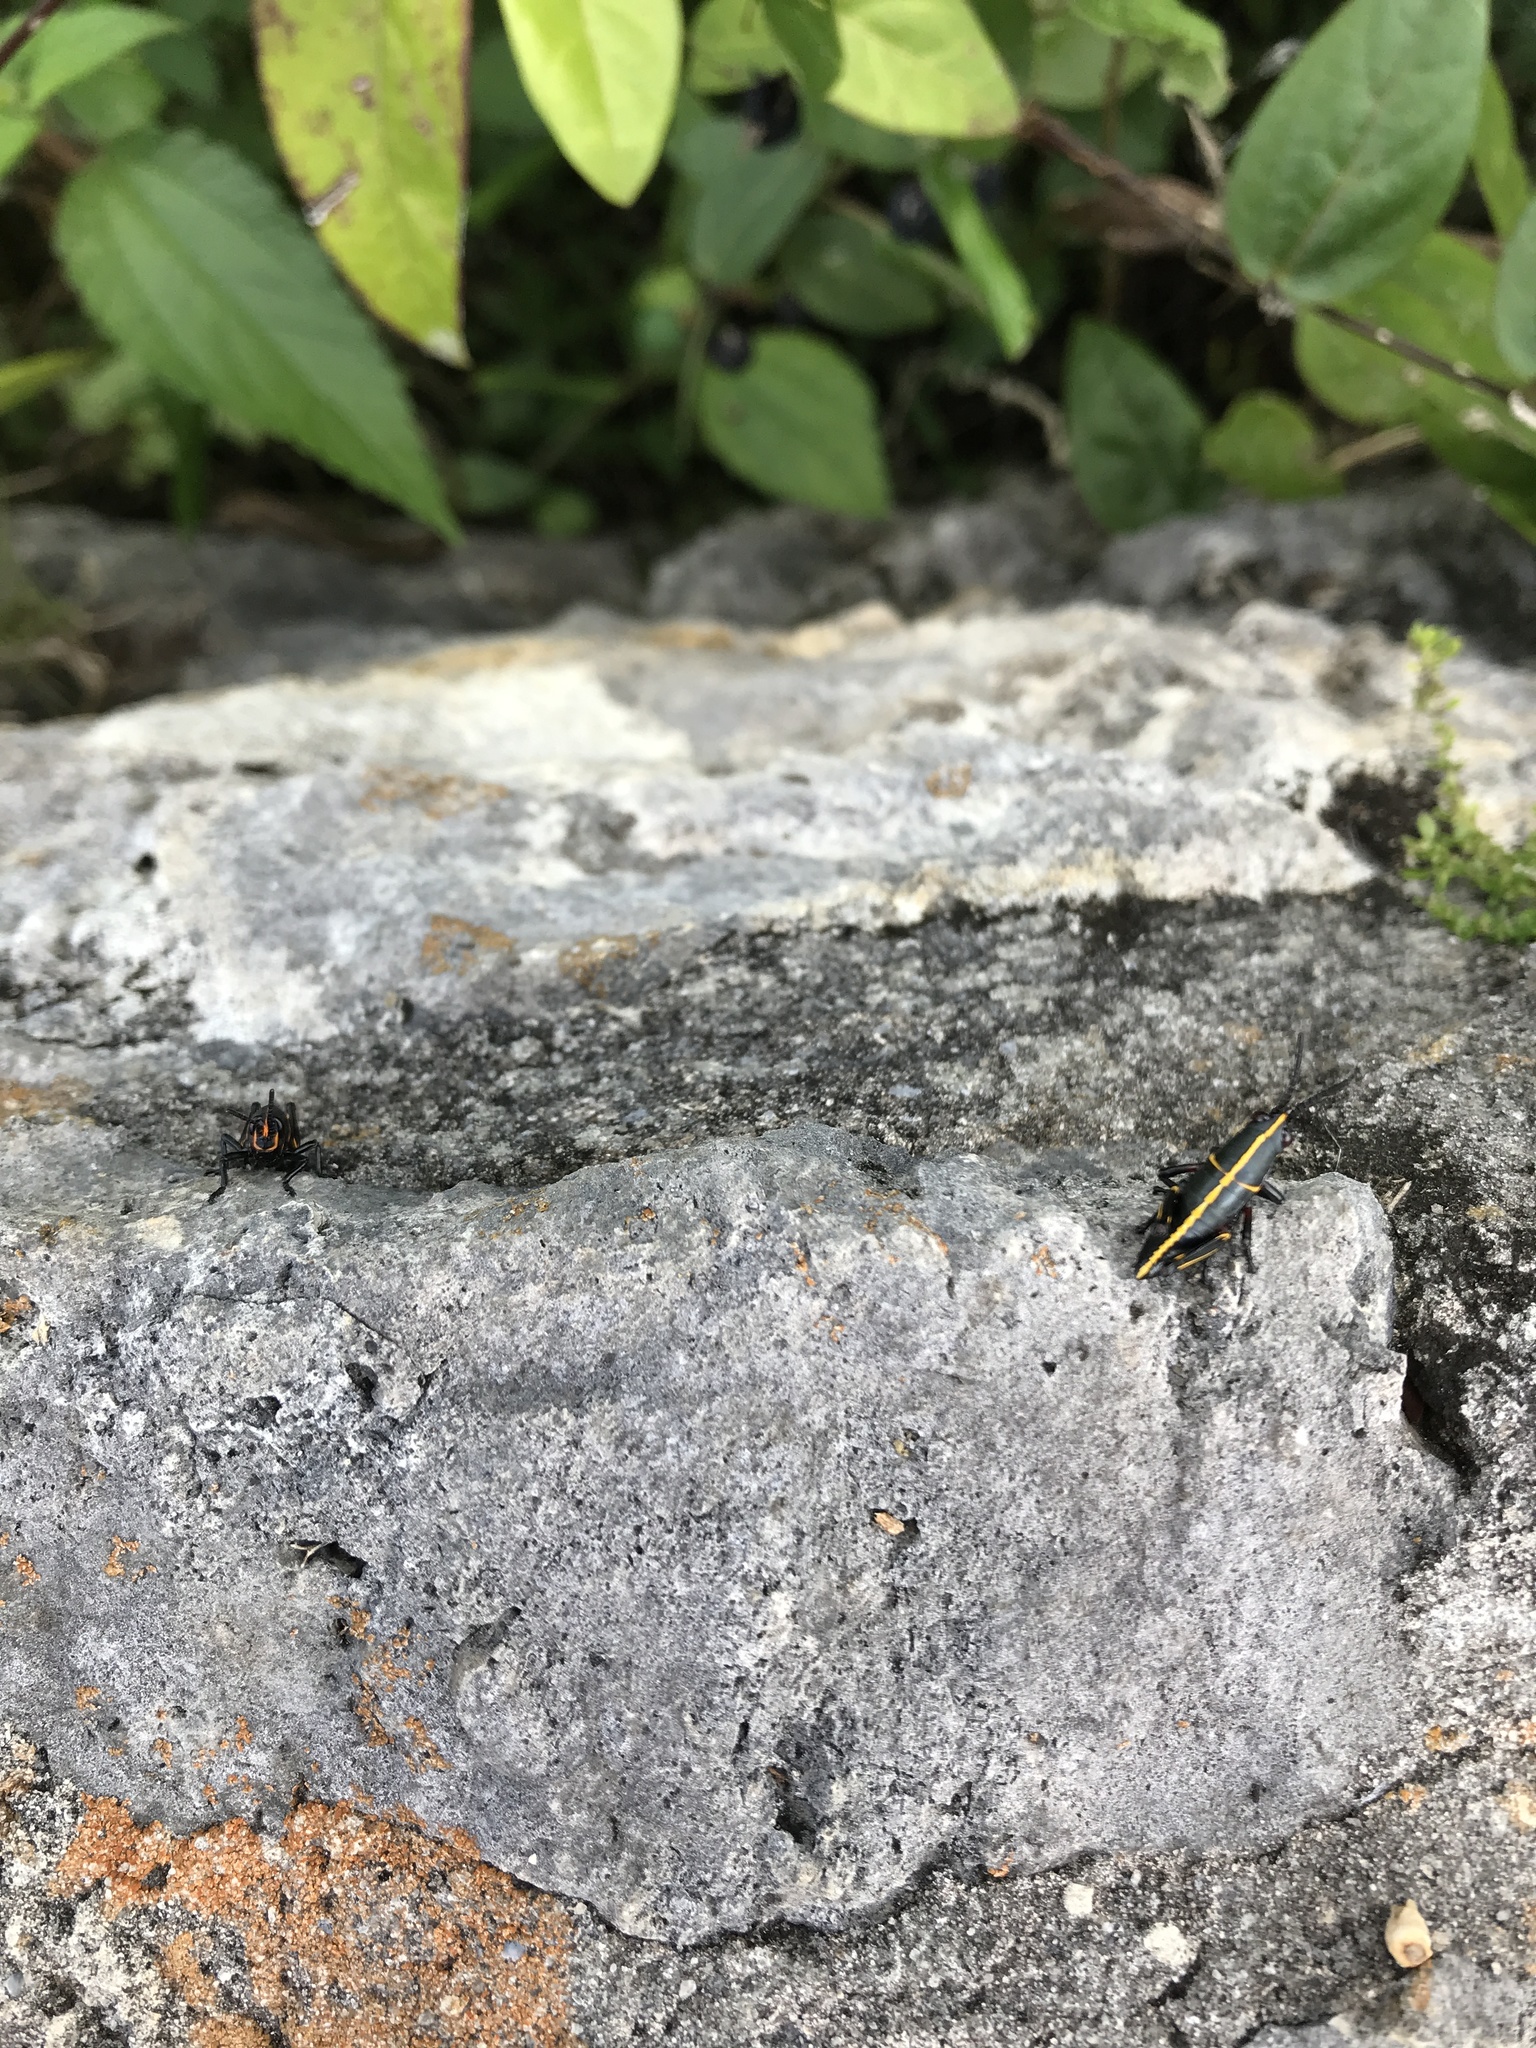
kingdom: Animalia
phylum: Arthropoda
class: Insecta
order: Orthoptera
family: Romaleidae
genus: Romalea
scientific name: Romalea microptera
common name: Eastern lubber grasshopper
